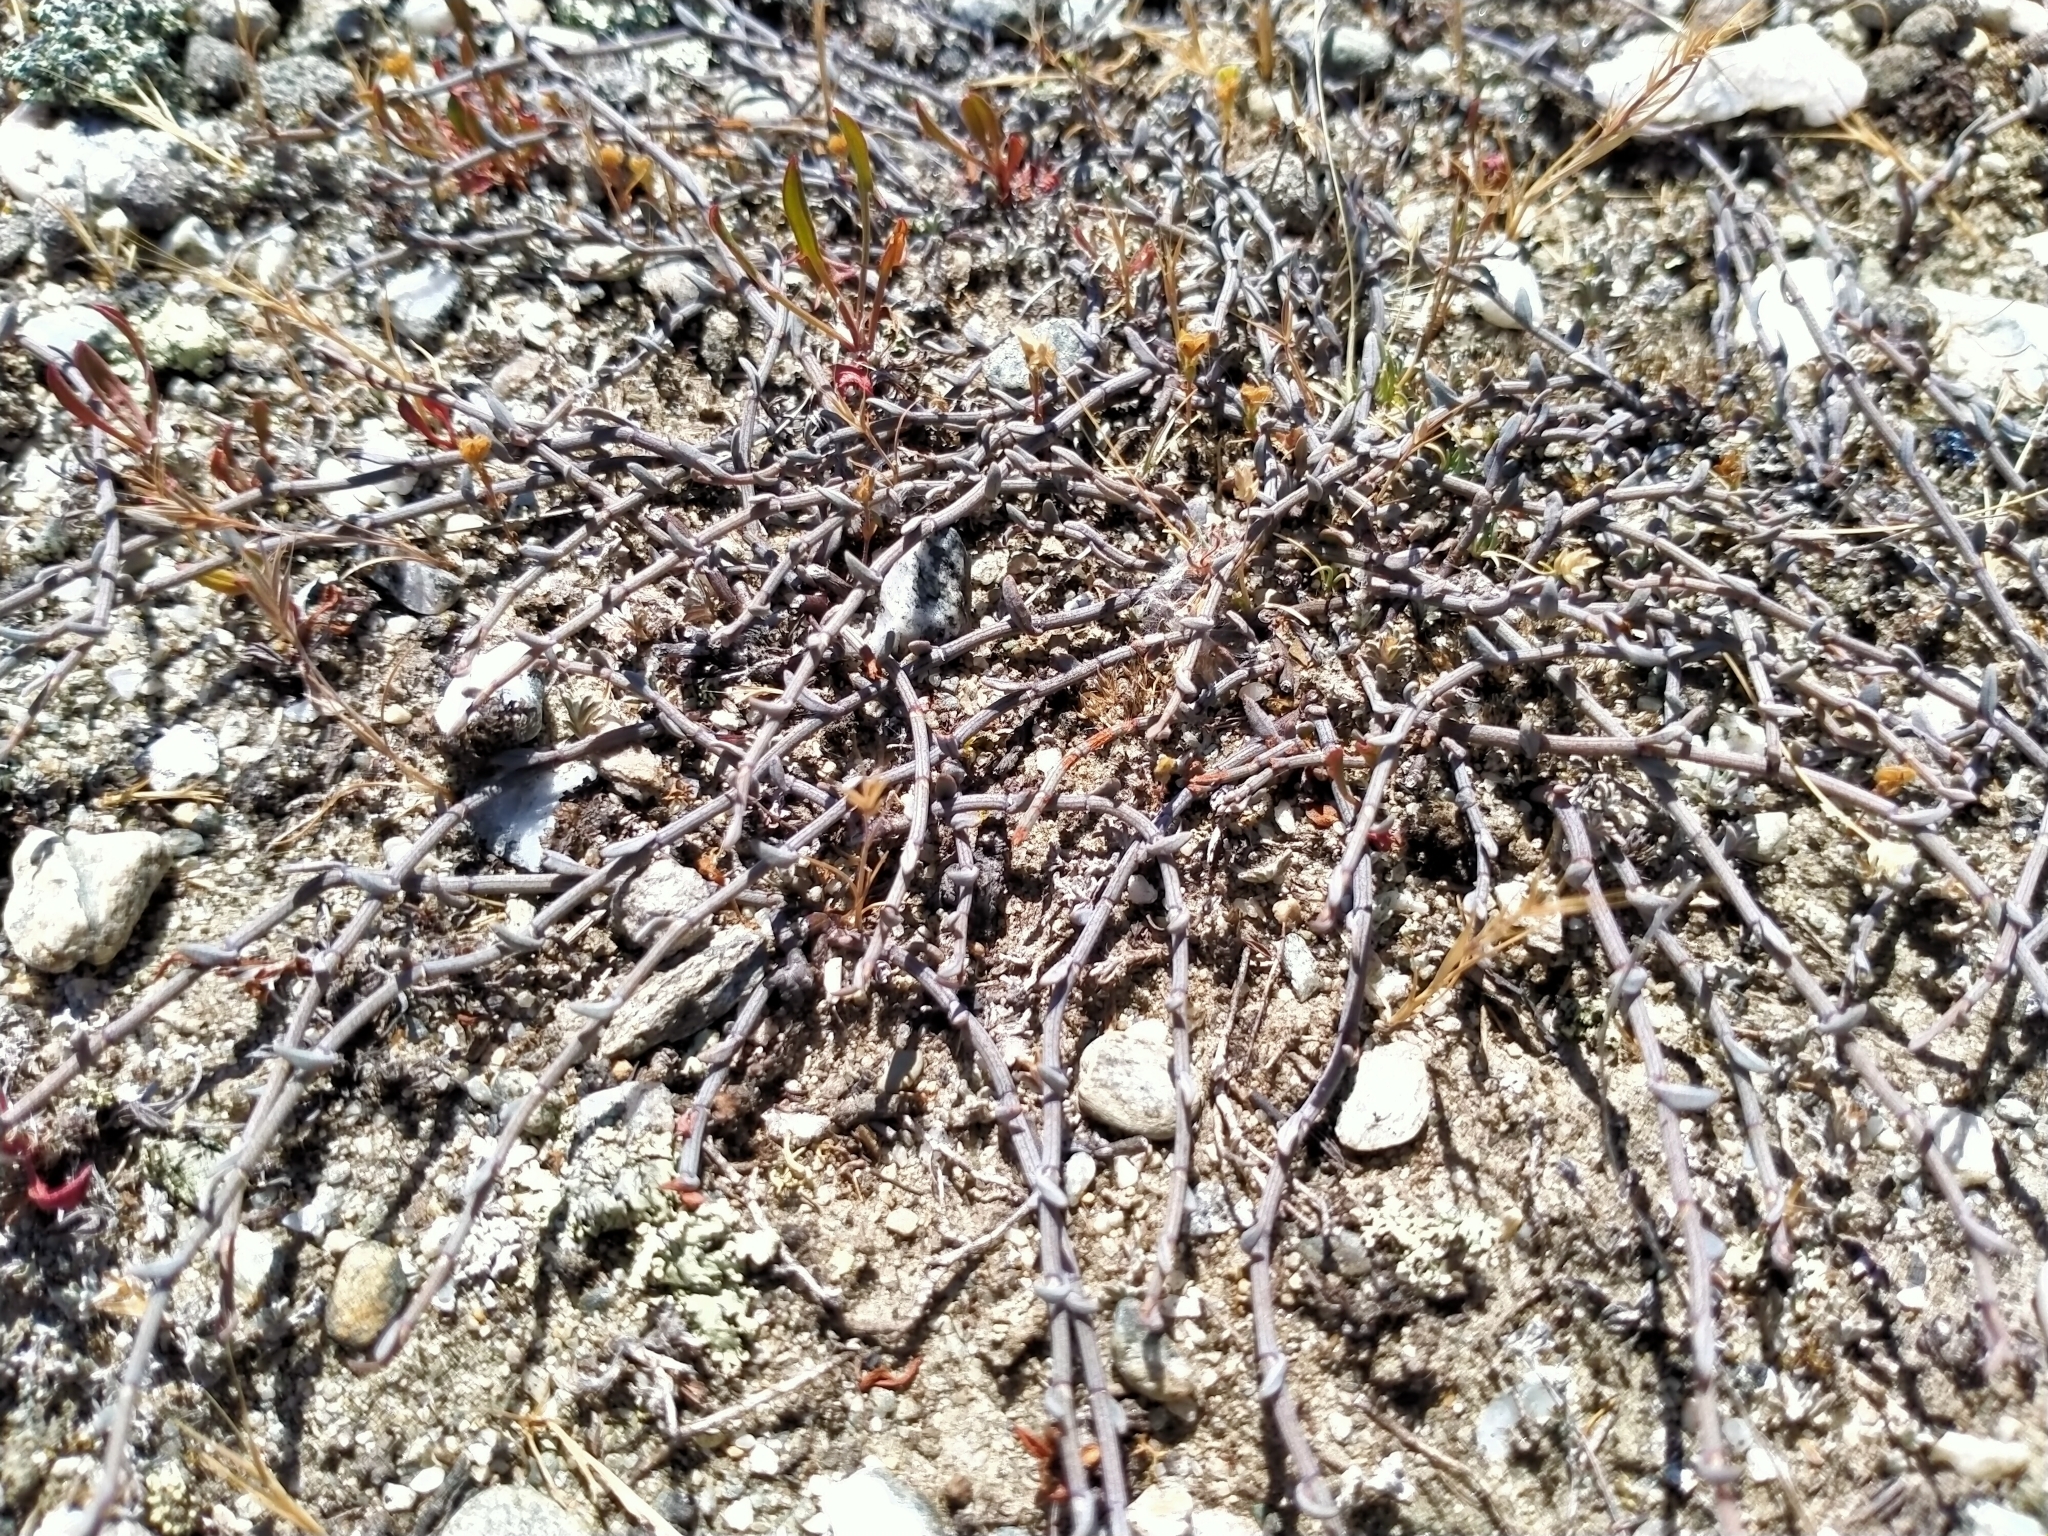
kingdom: Plantae
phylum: Tracheophyta
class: Magnoliopsida
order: Caryophyllales
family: Polygonaceae
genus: Muehlenbeckia
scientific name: Muehlenbeckia ephedroides
